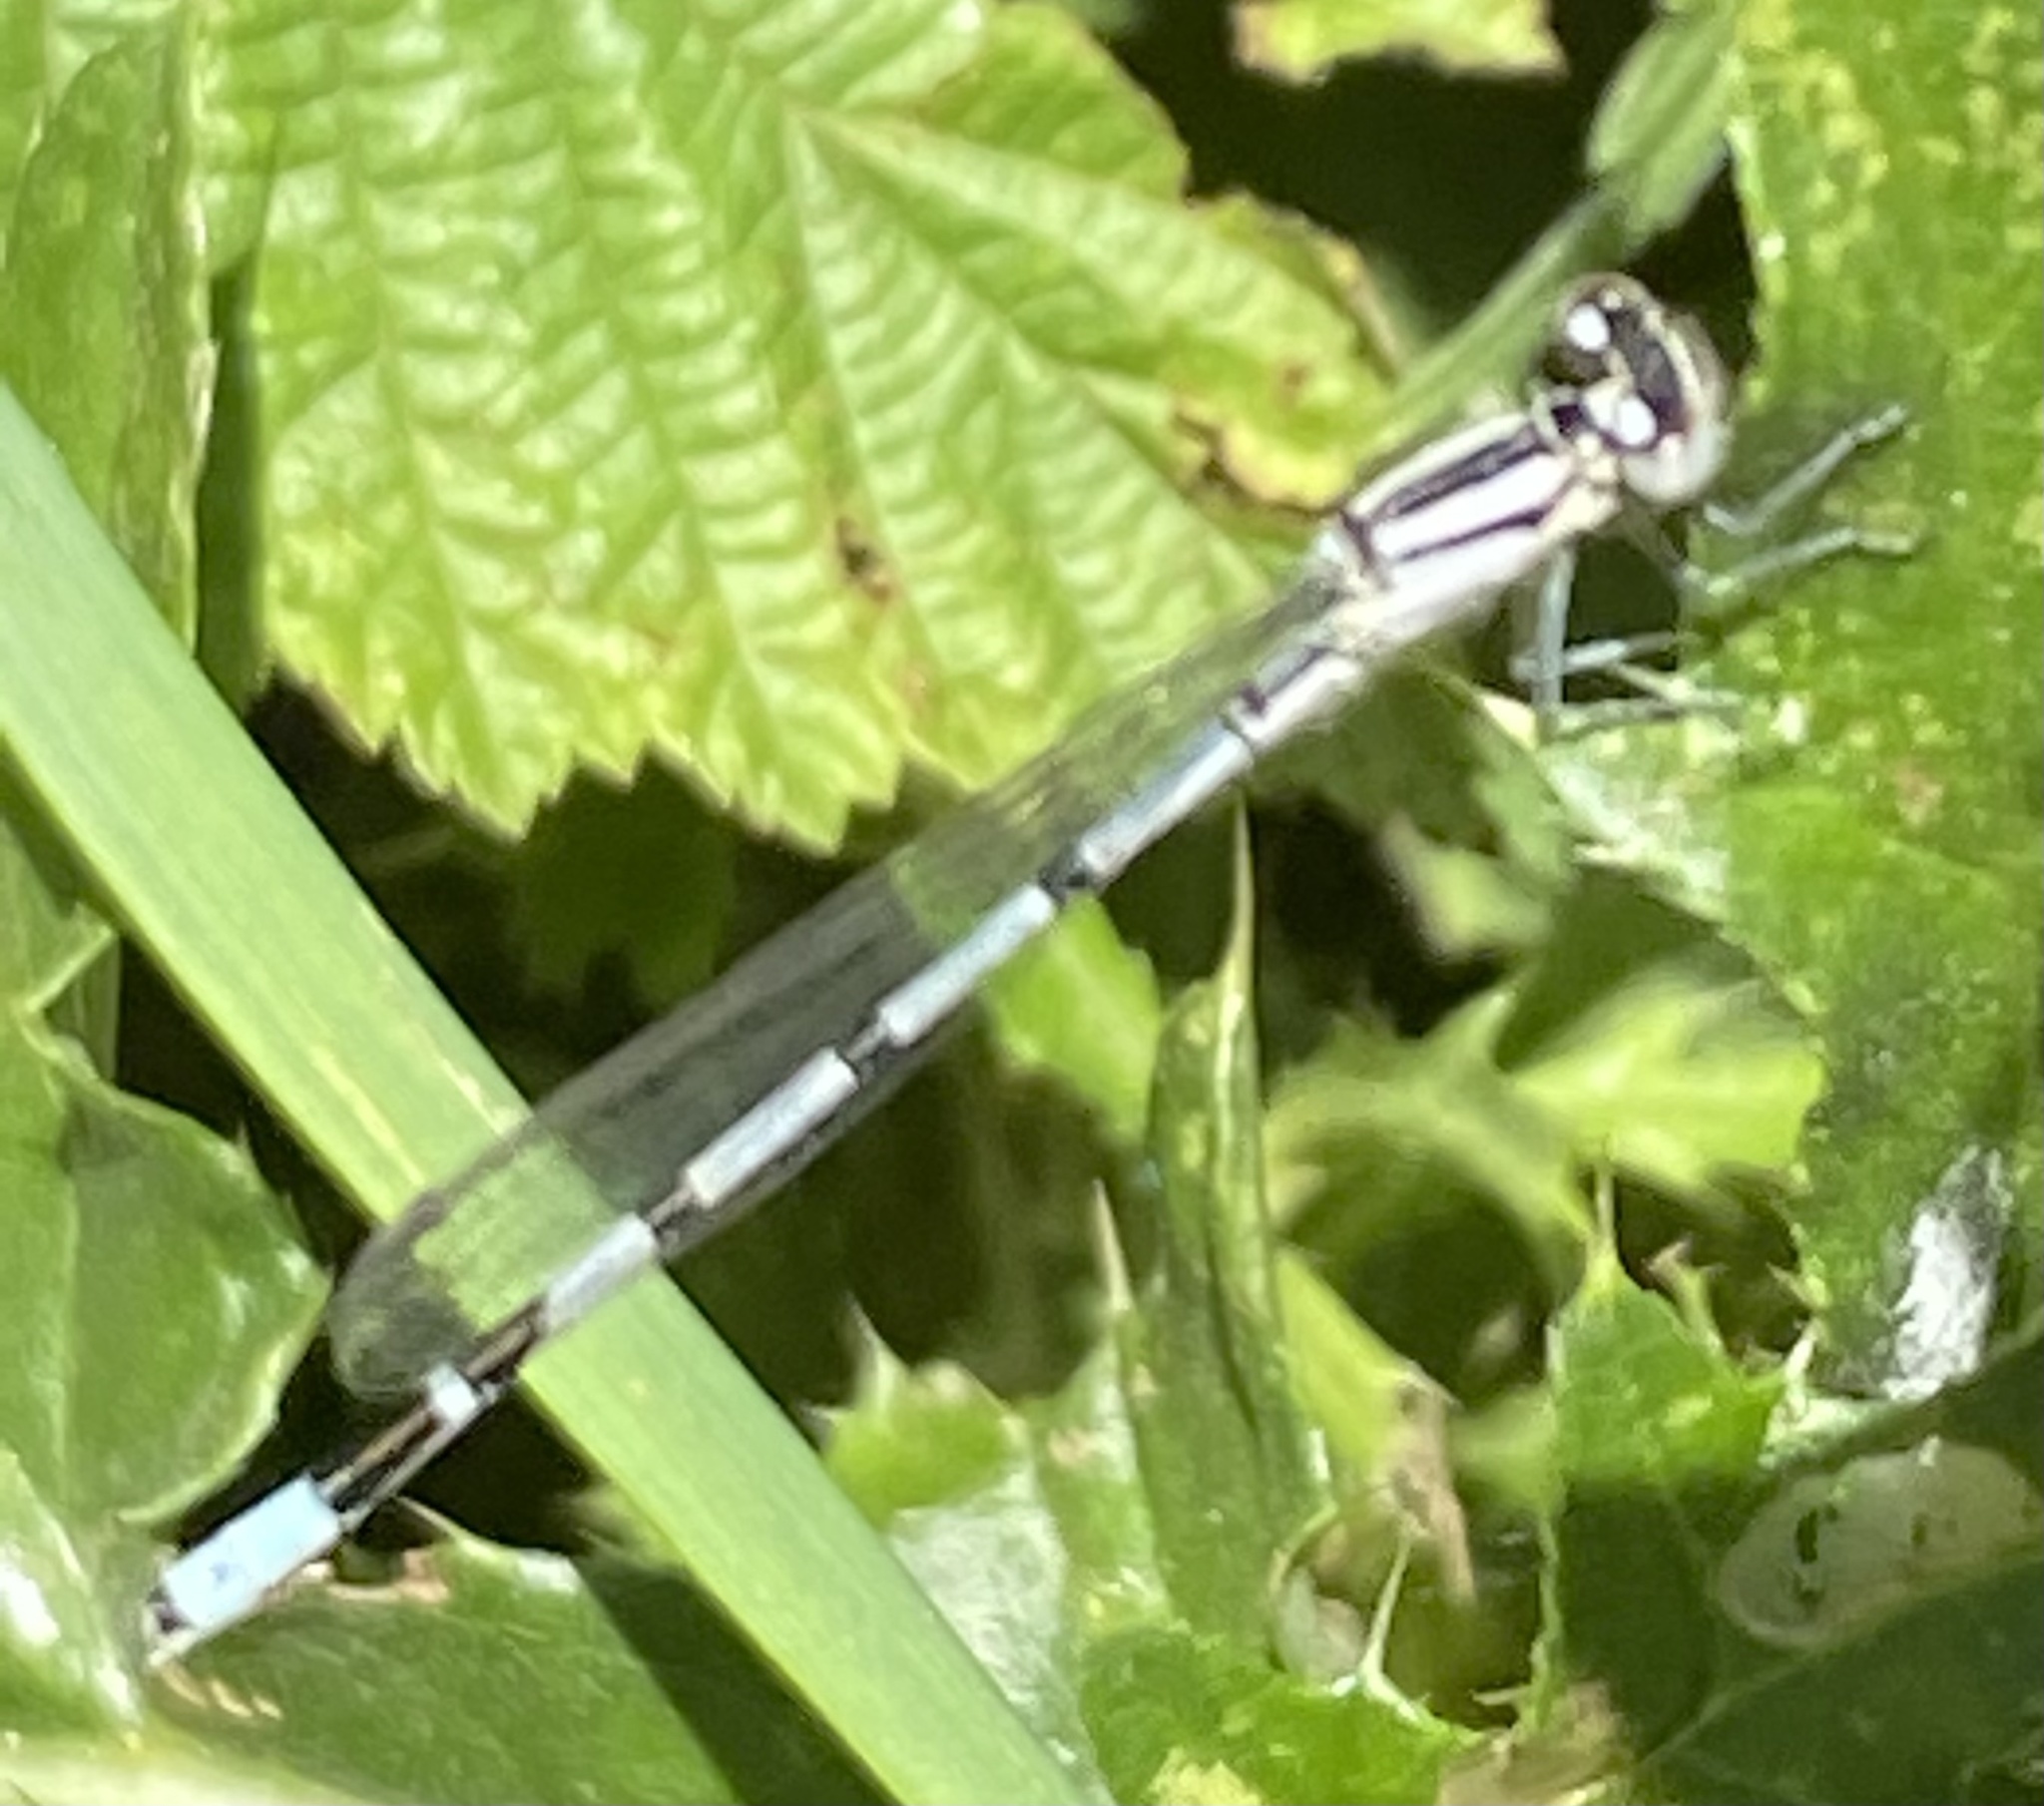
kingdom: Animalia
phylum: Arthropoda
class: Insecta
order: Odonata
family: Coenagrionidae
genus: Enallagma
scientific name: Enallagma cyathigerum
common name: Common blue damselfly
